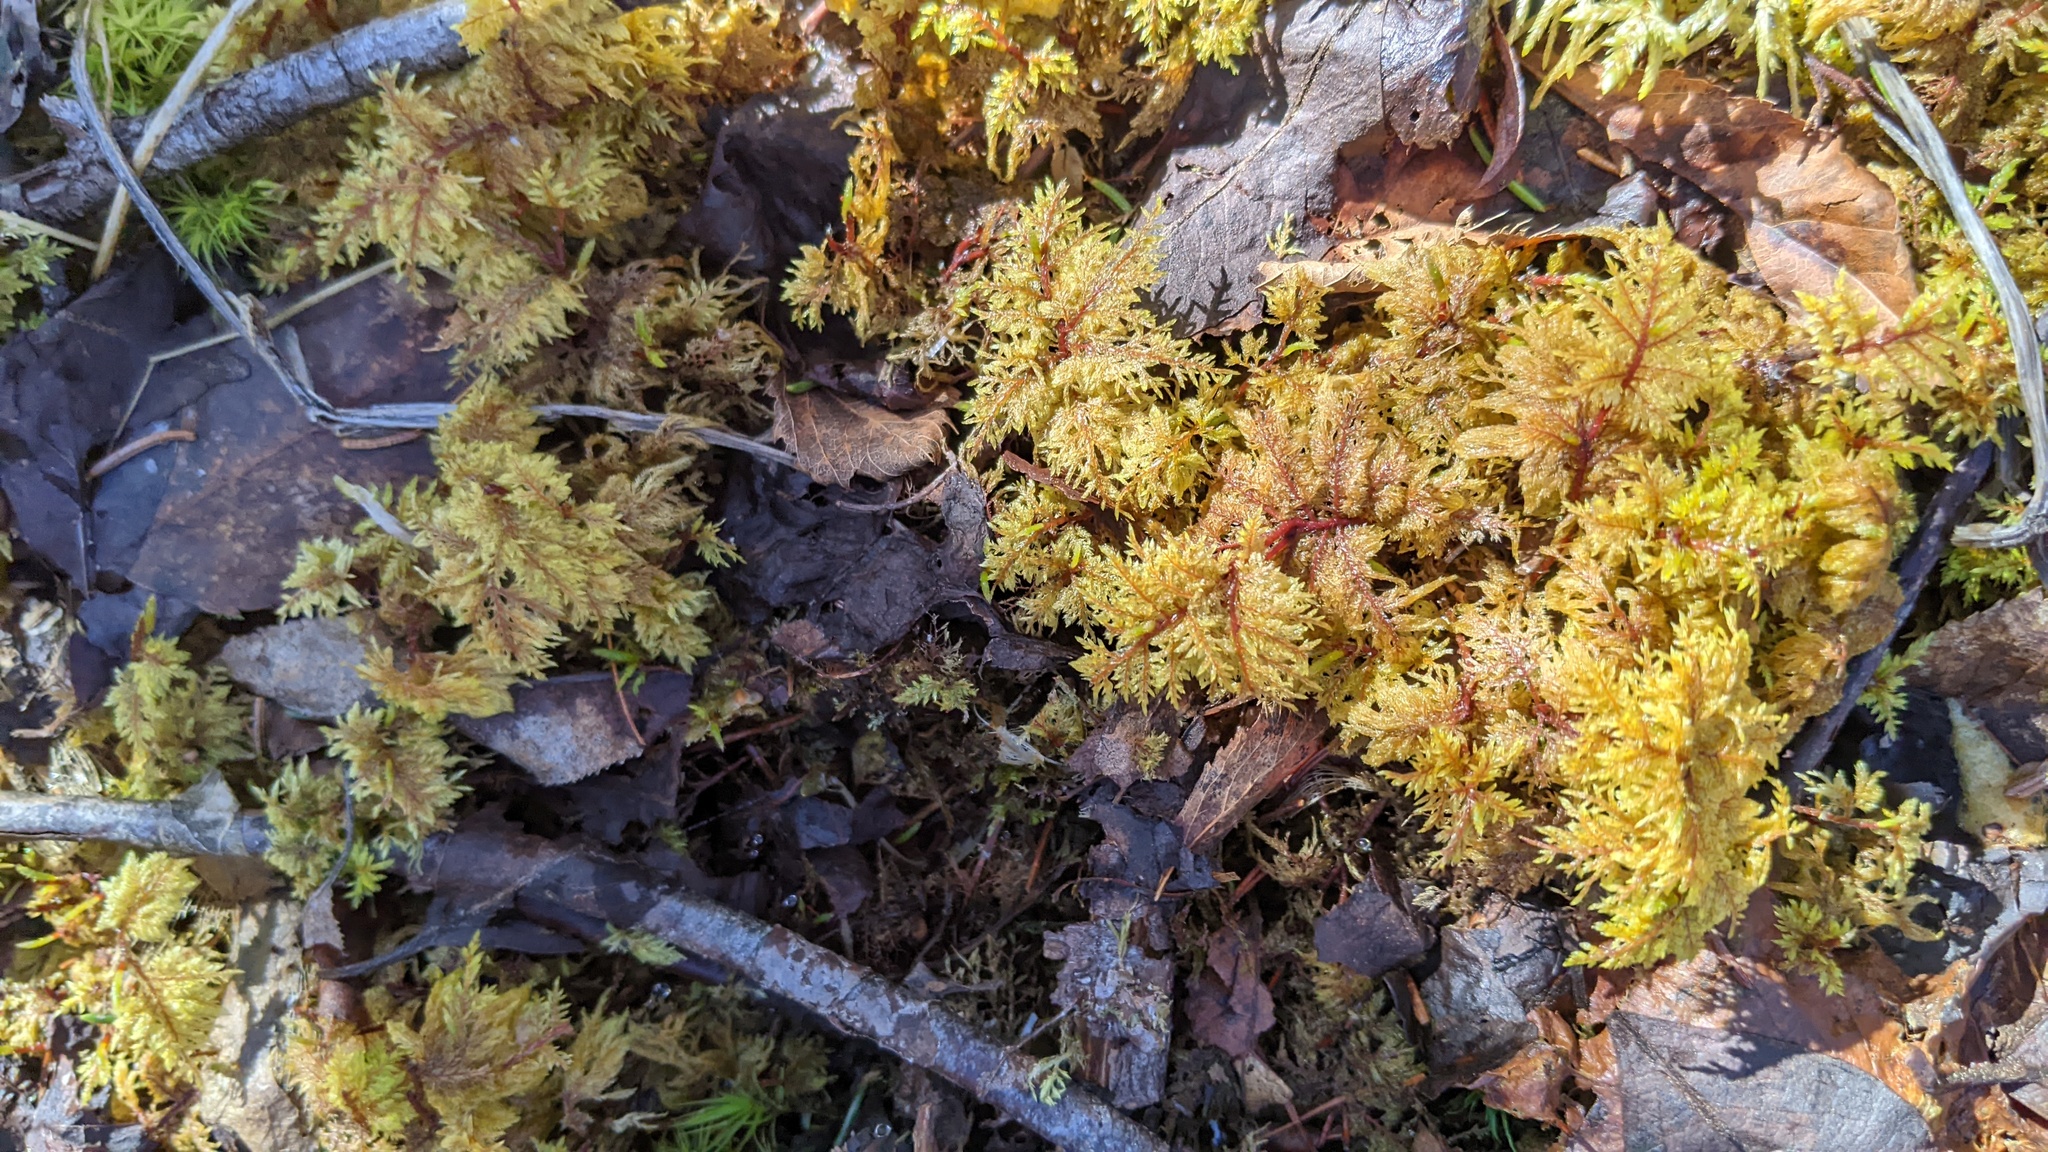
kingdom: Plantae
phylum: Bryophyta
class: Bryopsida
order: Hypnales
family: Hylocomiaceae
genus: Hylocomium
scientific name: Hylocomium splendens
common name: Stairstep moss
